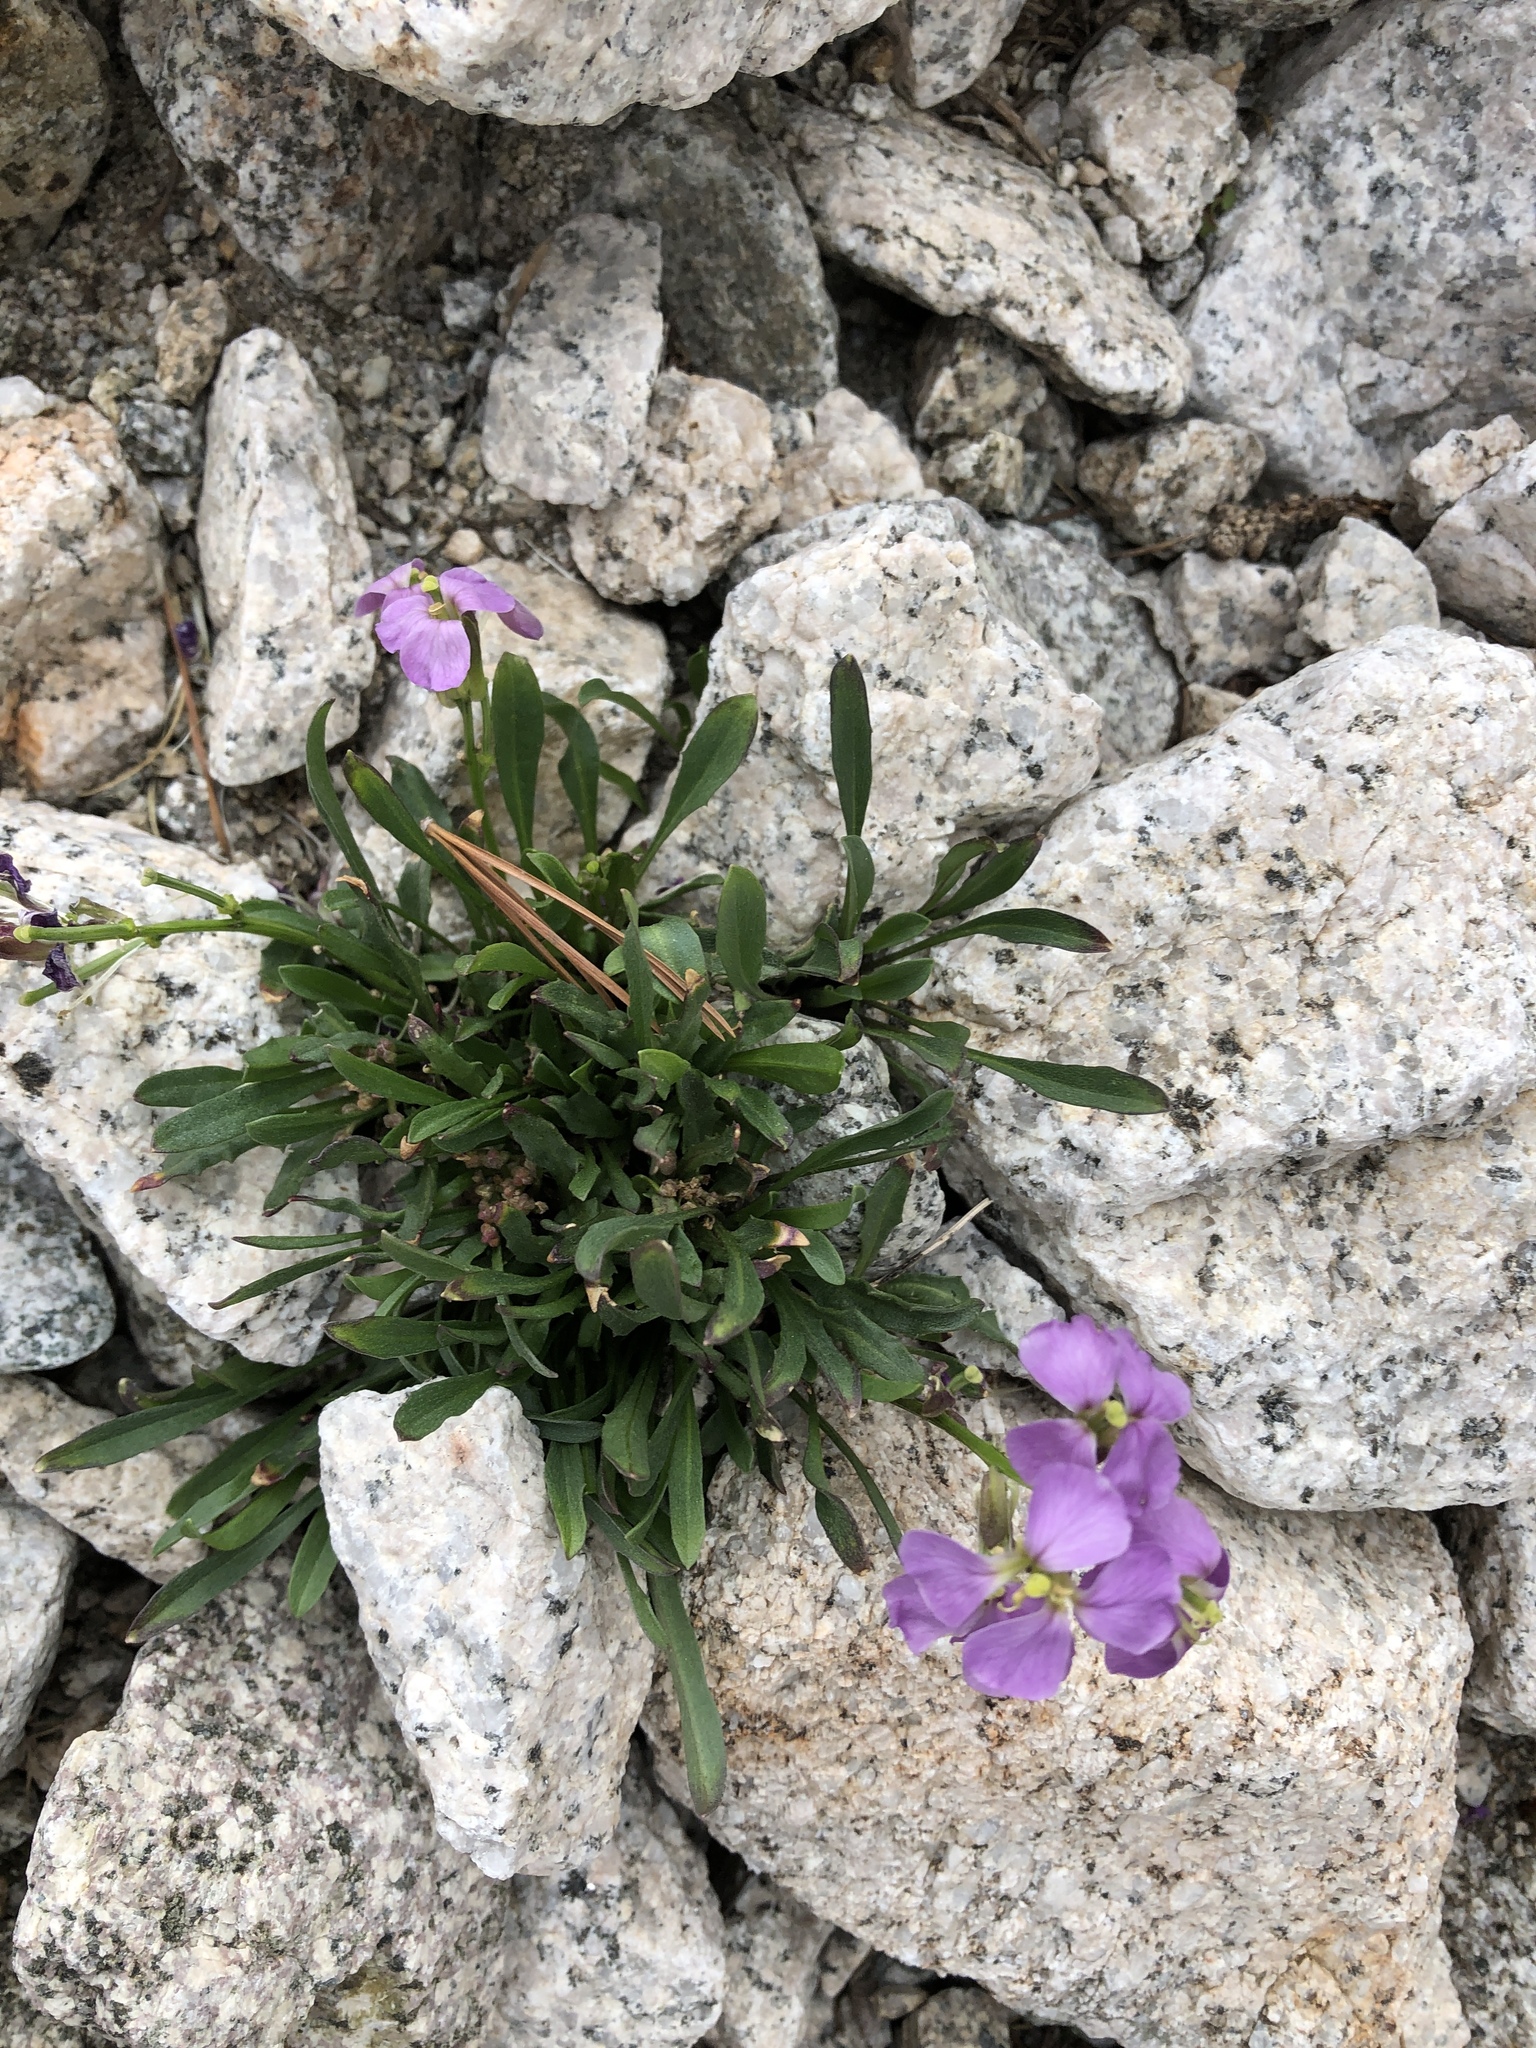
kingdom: Plantae
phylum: Tracheophyta
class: Magnoliopsida
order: Brassicales
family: Brassicaceae
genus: Erysimum
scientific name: Erysimum pallasii
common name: Pallas' wallflower
